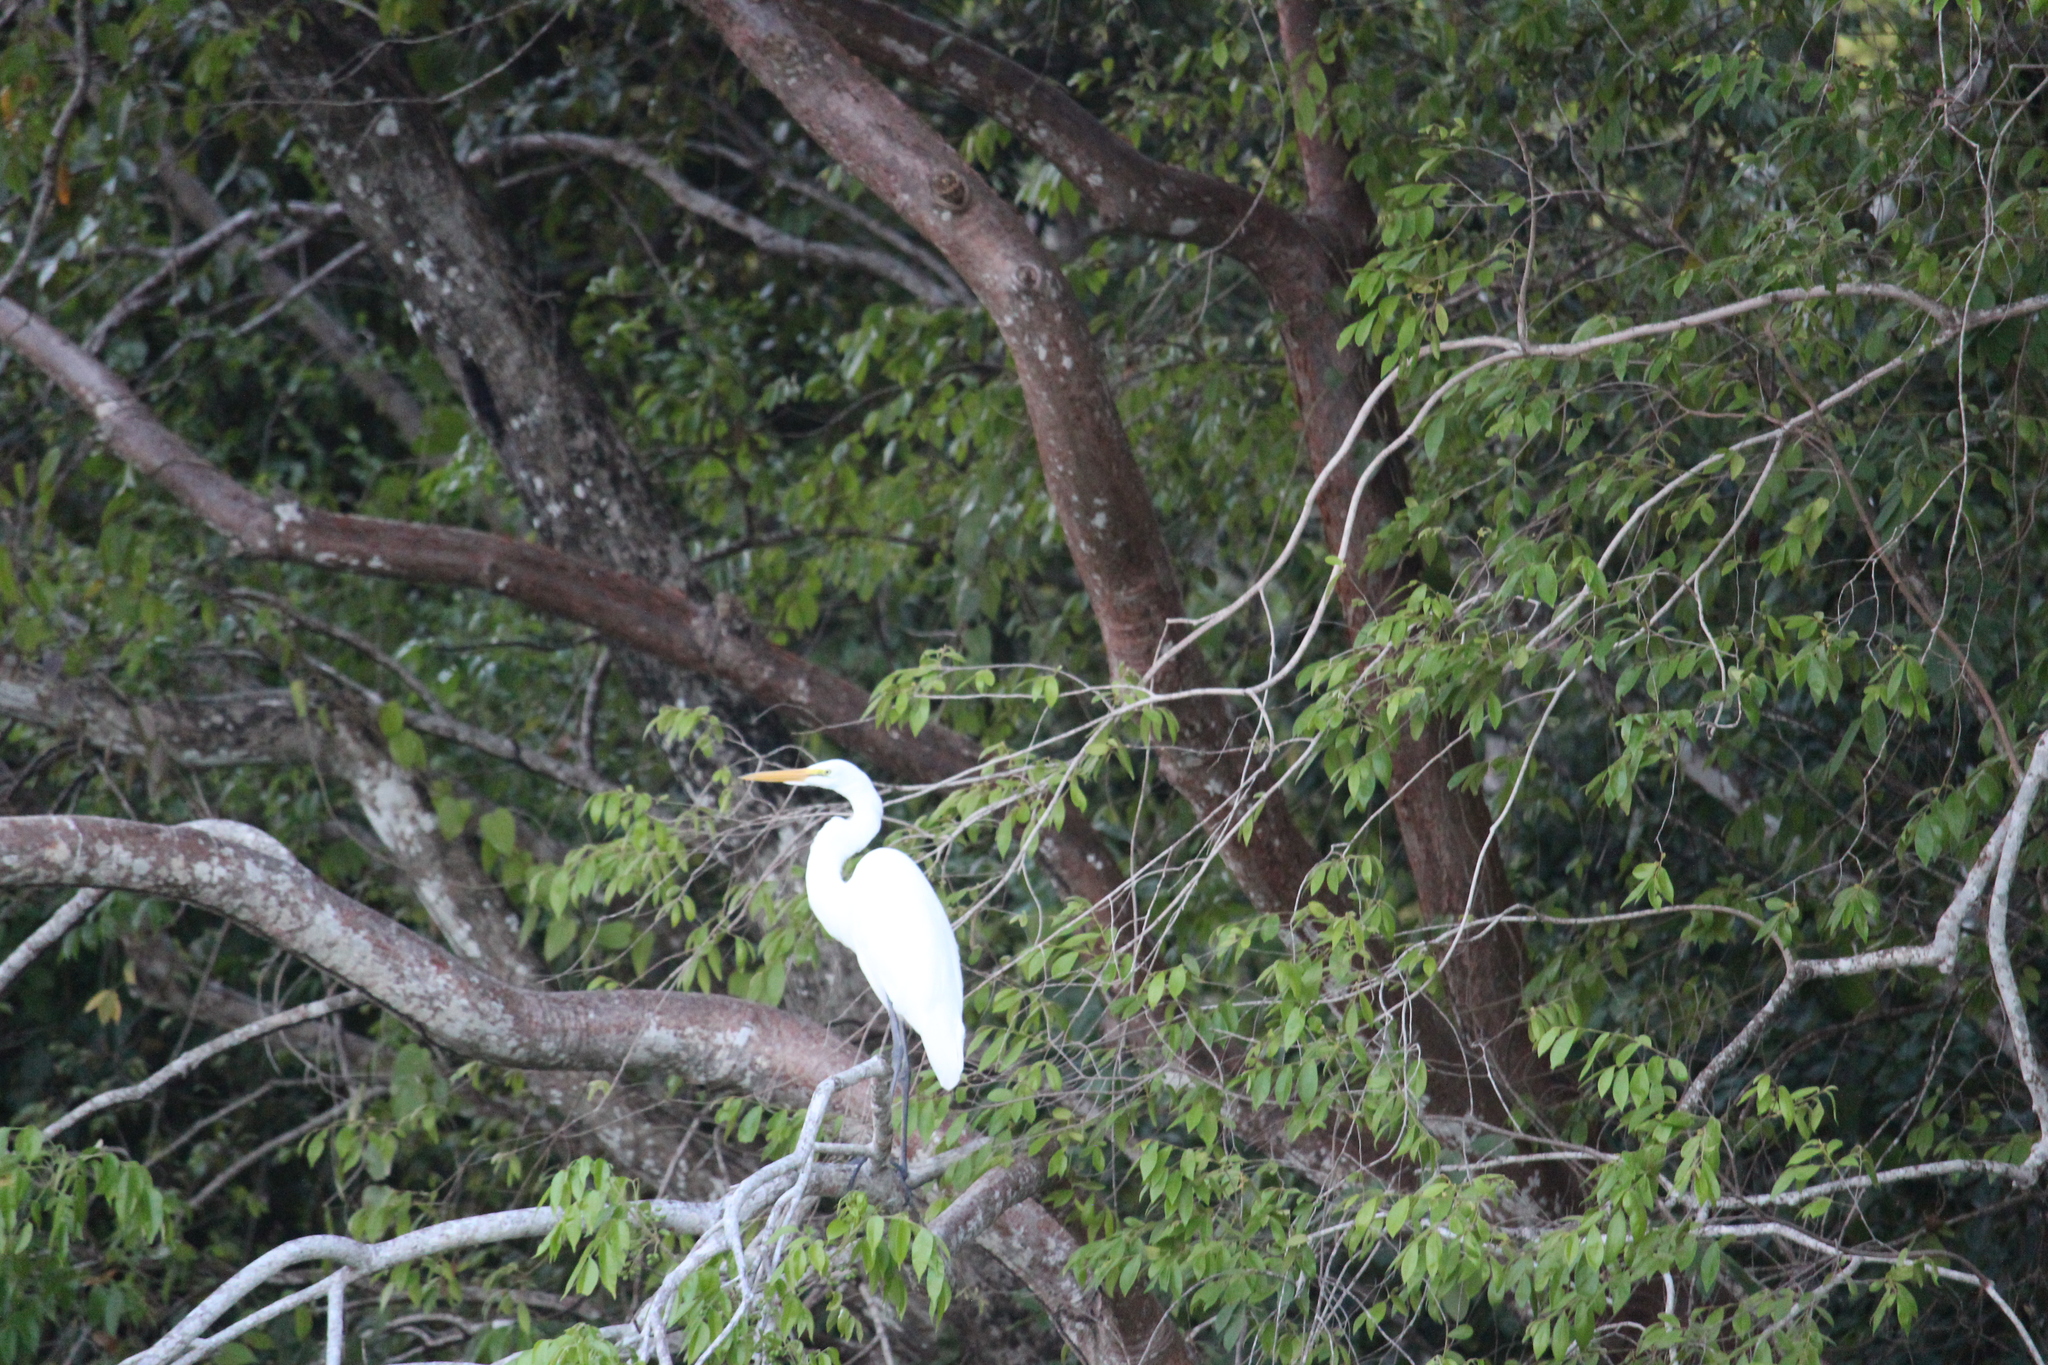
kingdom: Animalia
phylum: Chordata
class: Aves
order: Pelecaniformes
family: Ardeidae
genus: Ardea
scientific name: Ardea alba
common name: Great egret
